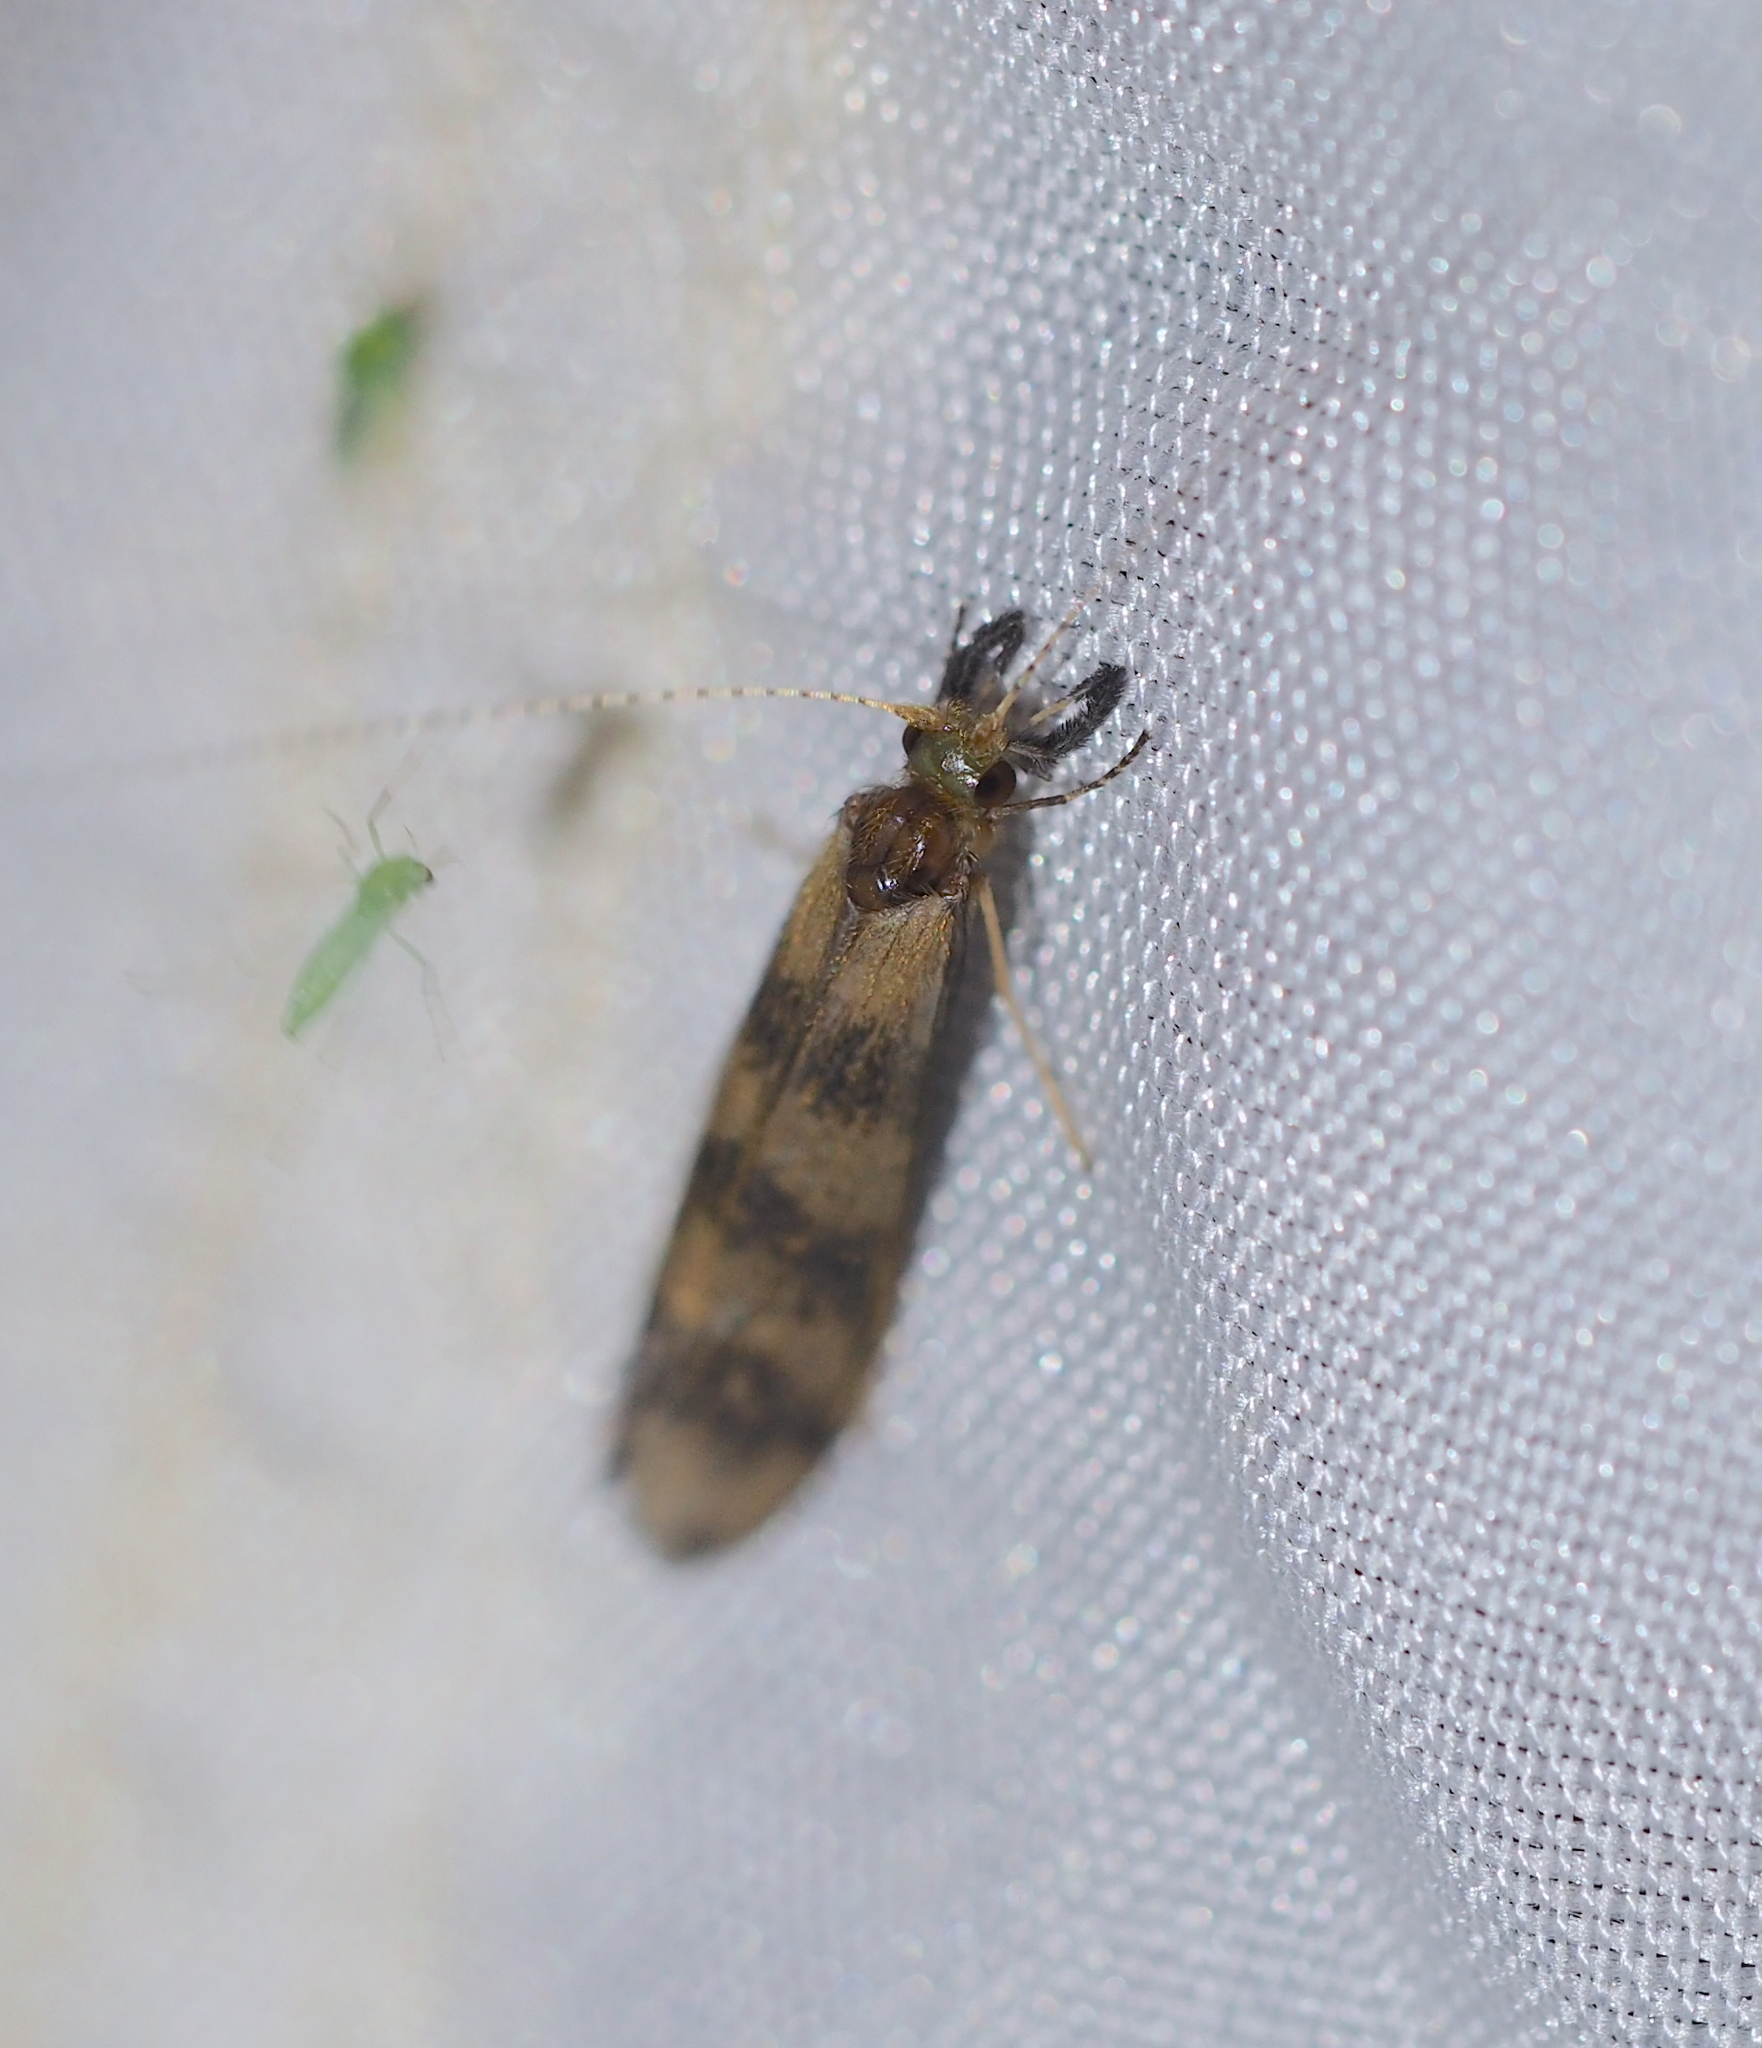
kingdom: Animalia
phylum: Arthropoda
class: Insecta
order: Trichoptera
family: Leptoceridae
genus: Mystacides
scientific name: Mystacides longicornis
